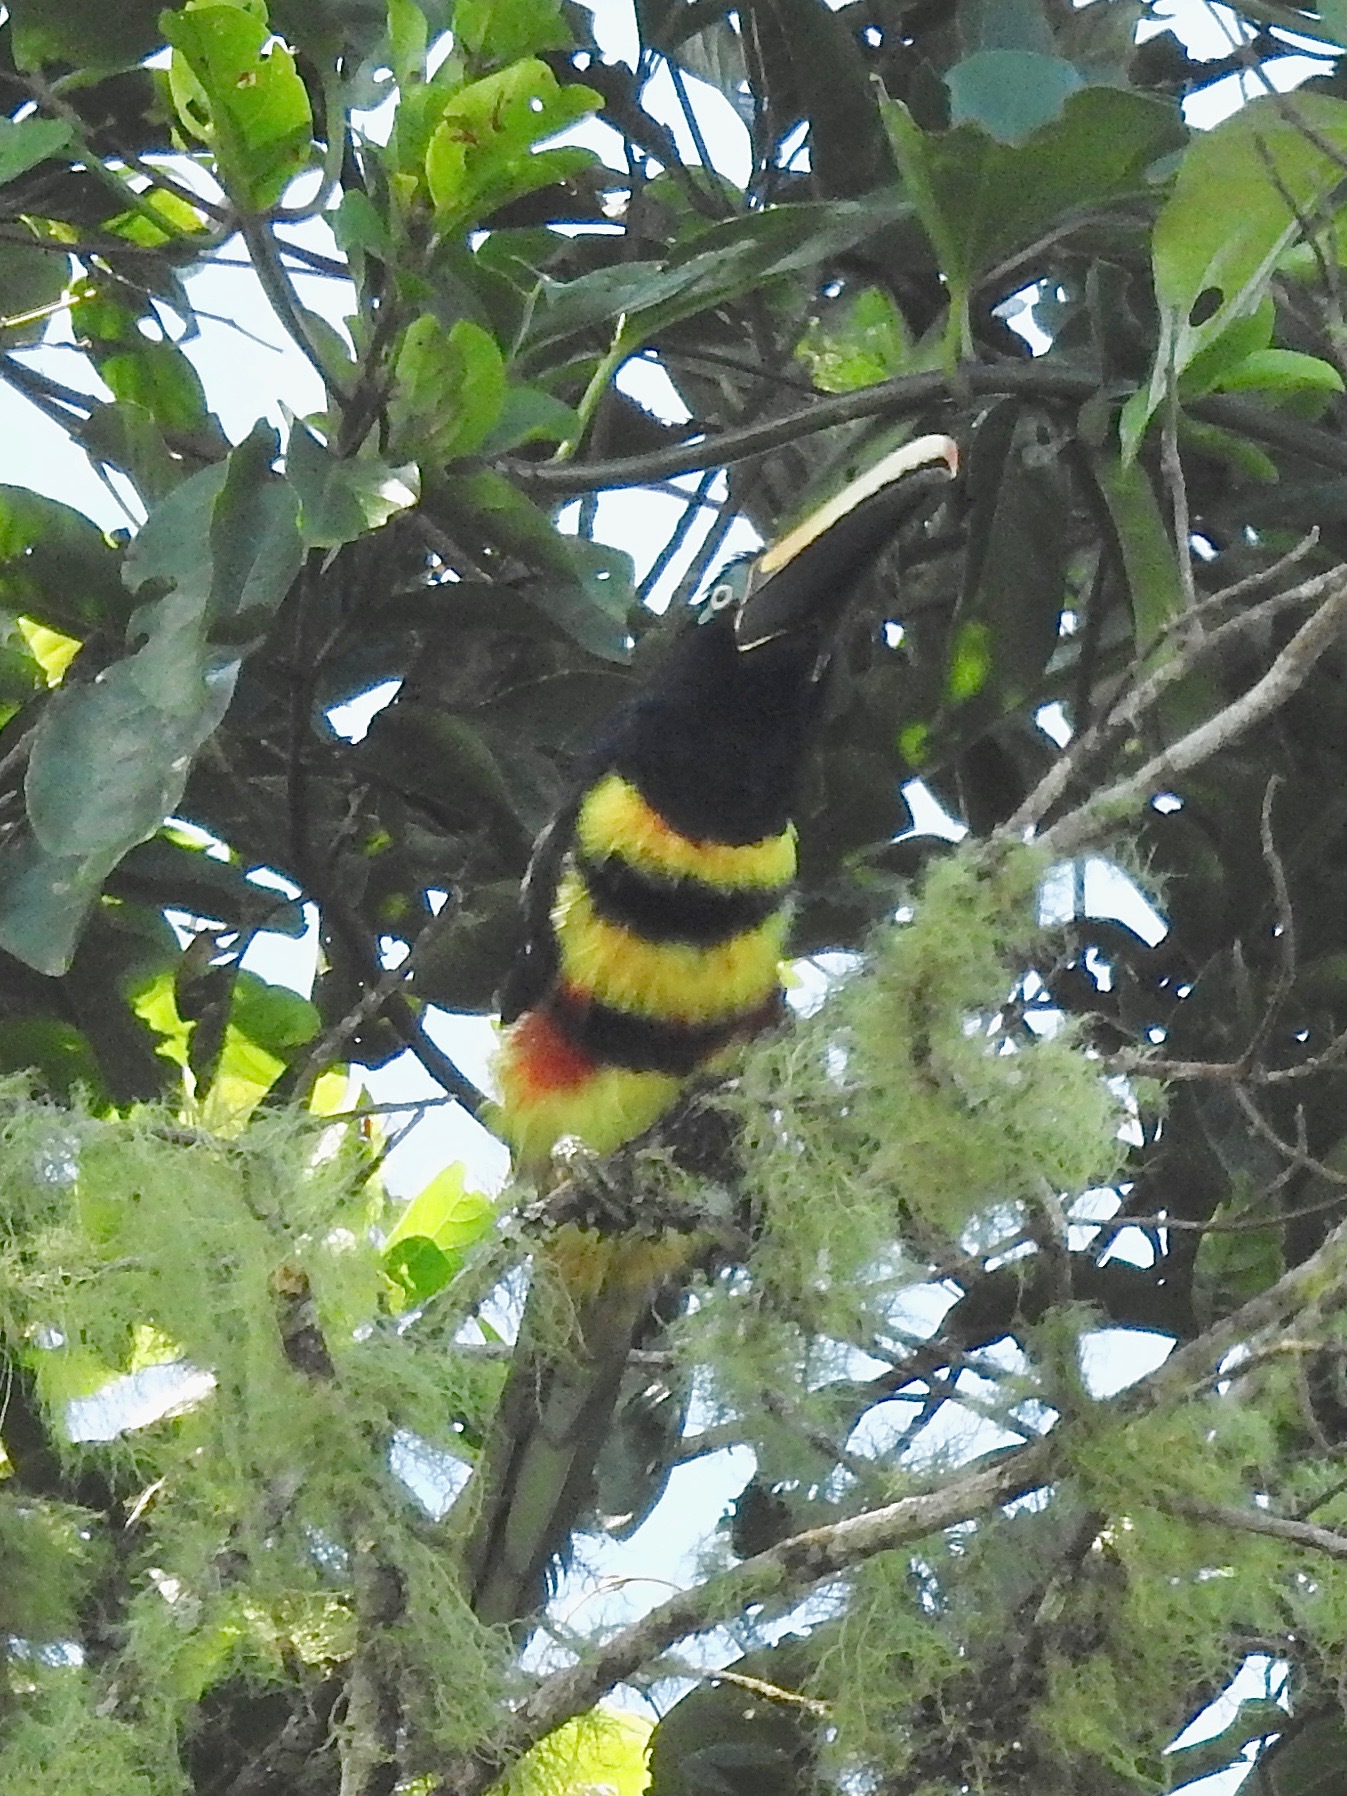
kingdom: Animalia
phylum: Chordata
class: Aves
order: Piciformes
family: Ramphastidae
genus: Pteroglossus
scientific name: Pteroglossus pluricinctus
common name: Many-banded aracari
